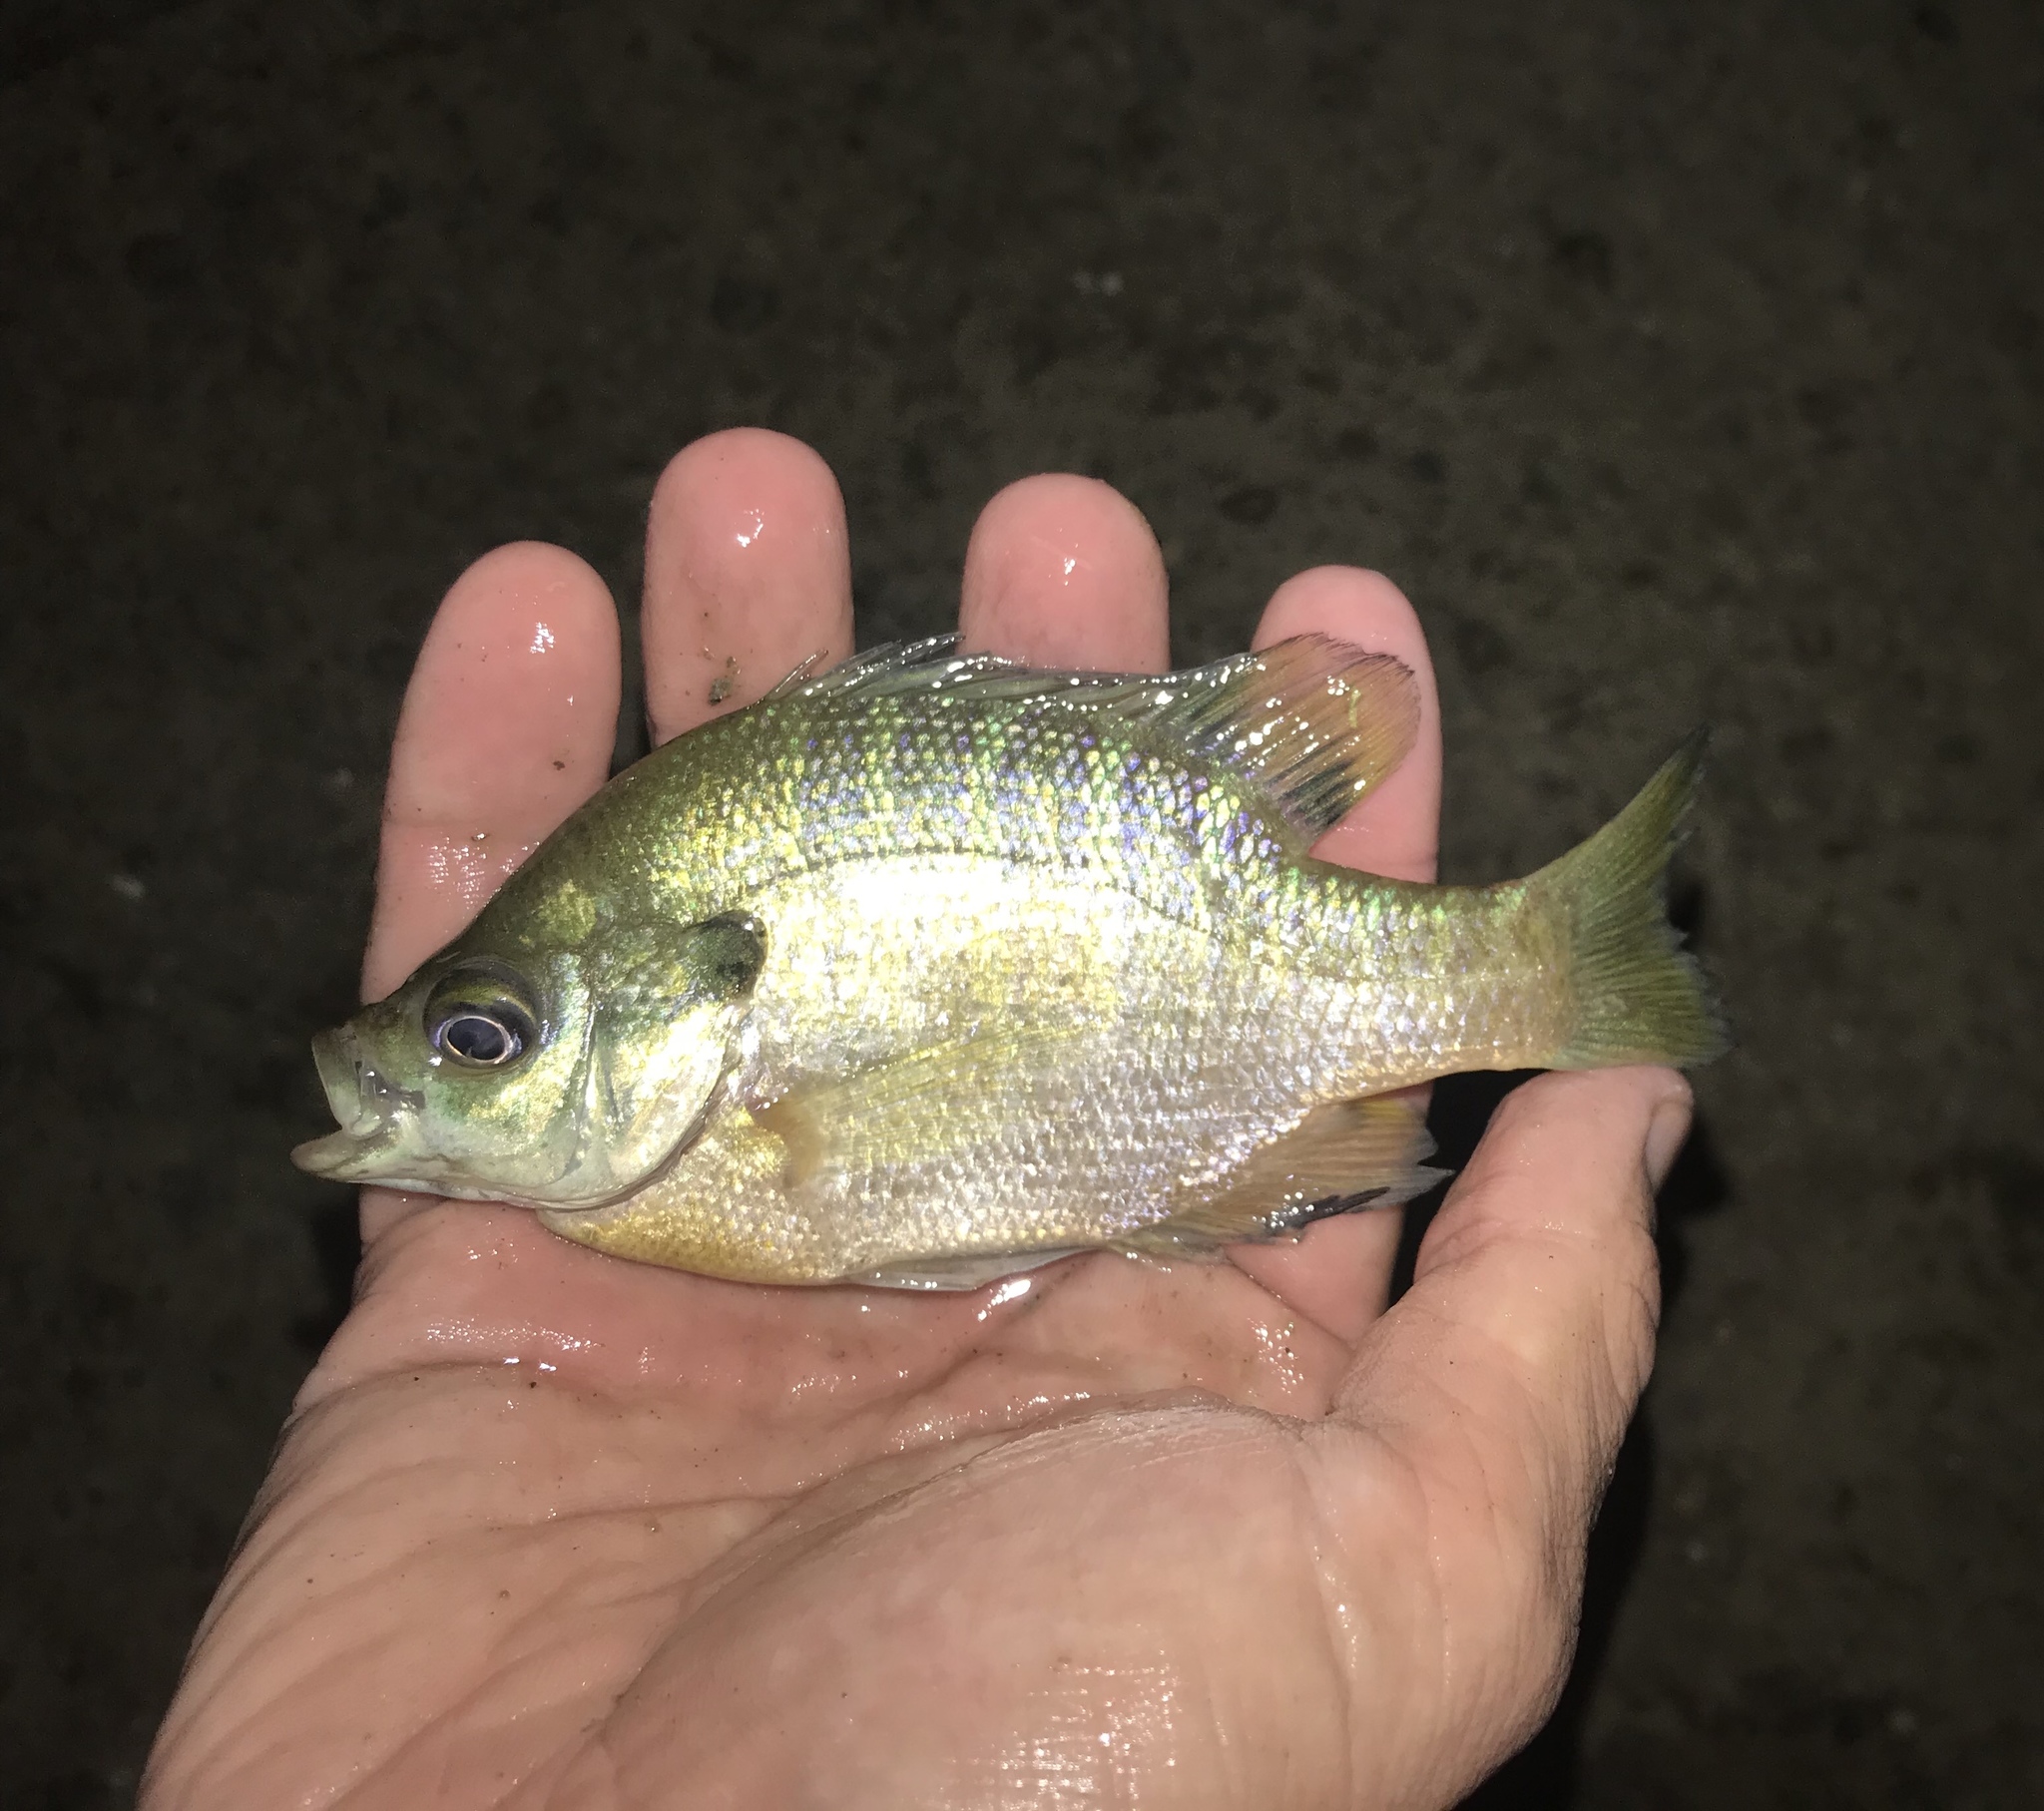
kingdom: Animalia
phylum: Chordata
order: Perciformes
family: Centrarchidae
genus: Lepomis
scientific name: Lepomis macrochirus
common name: Bluegill
